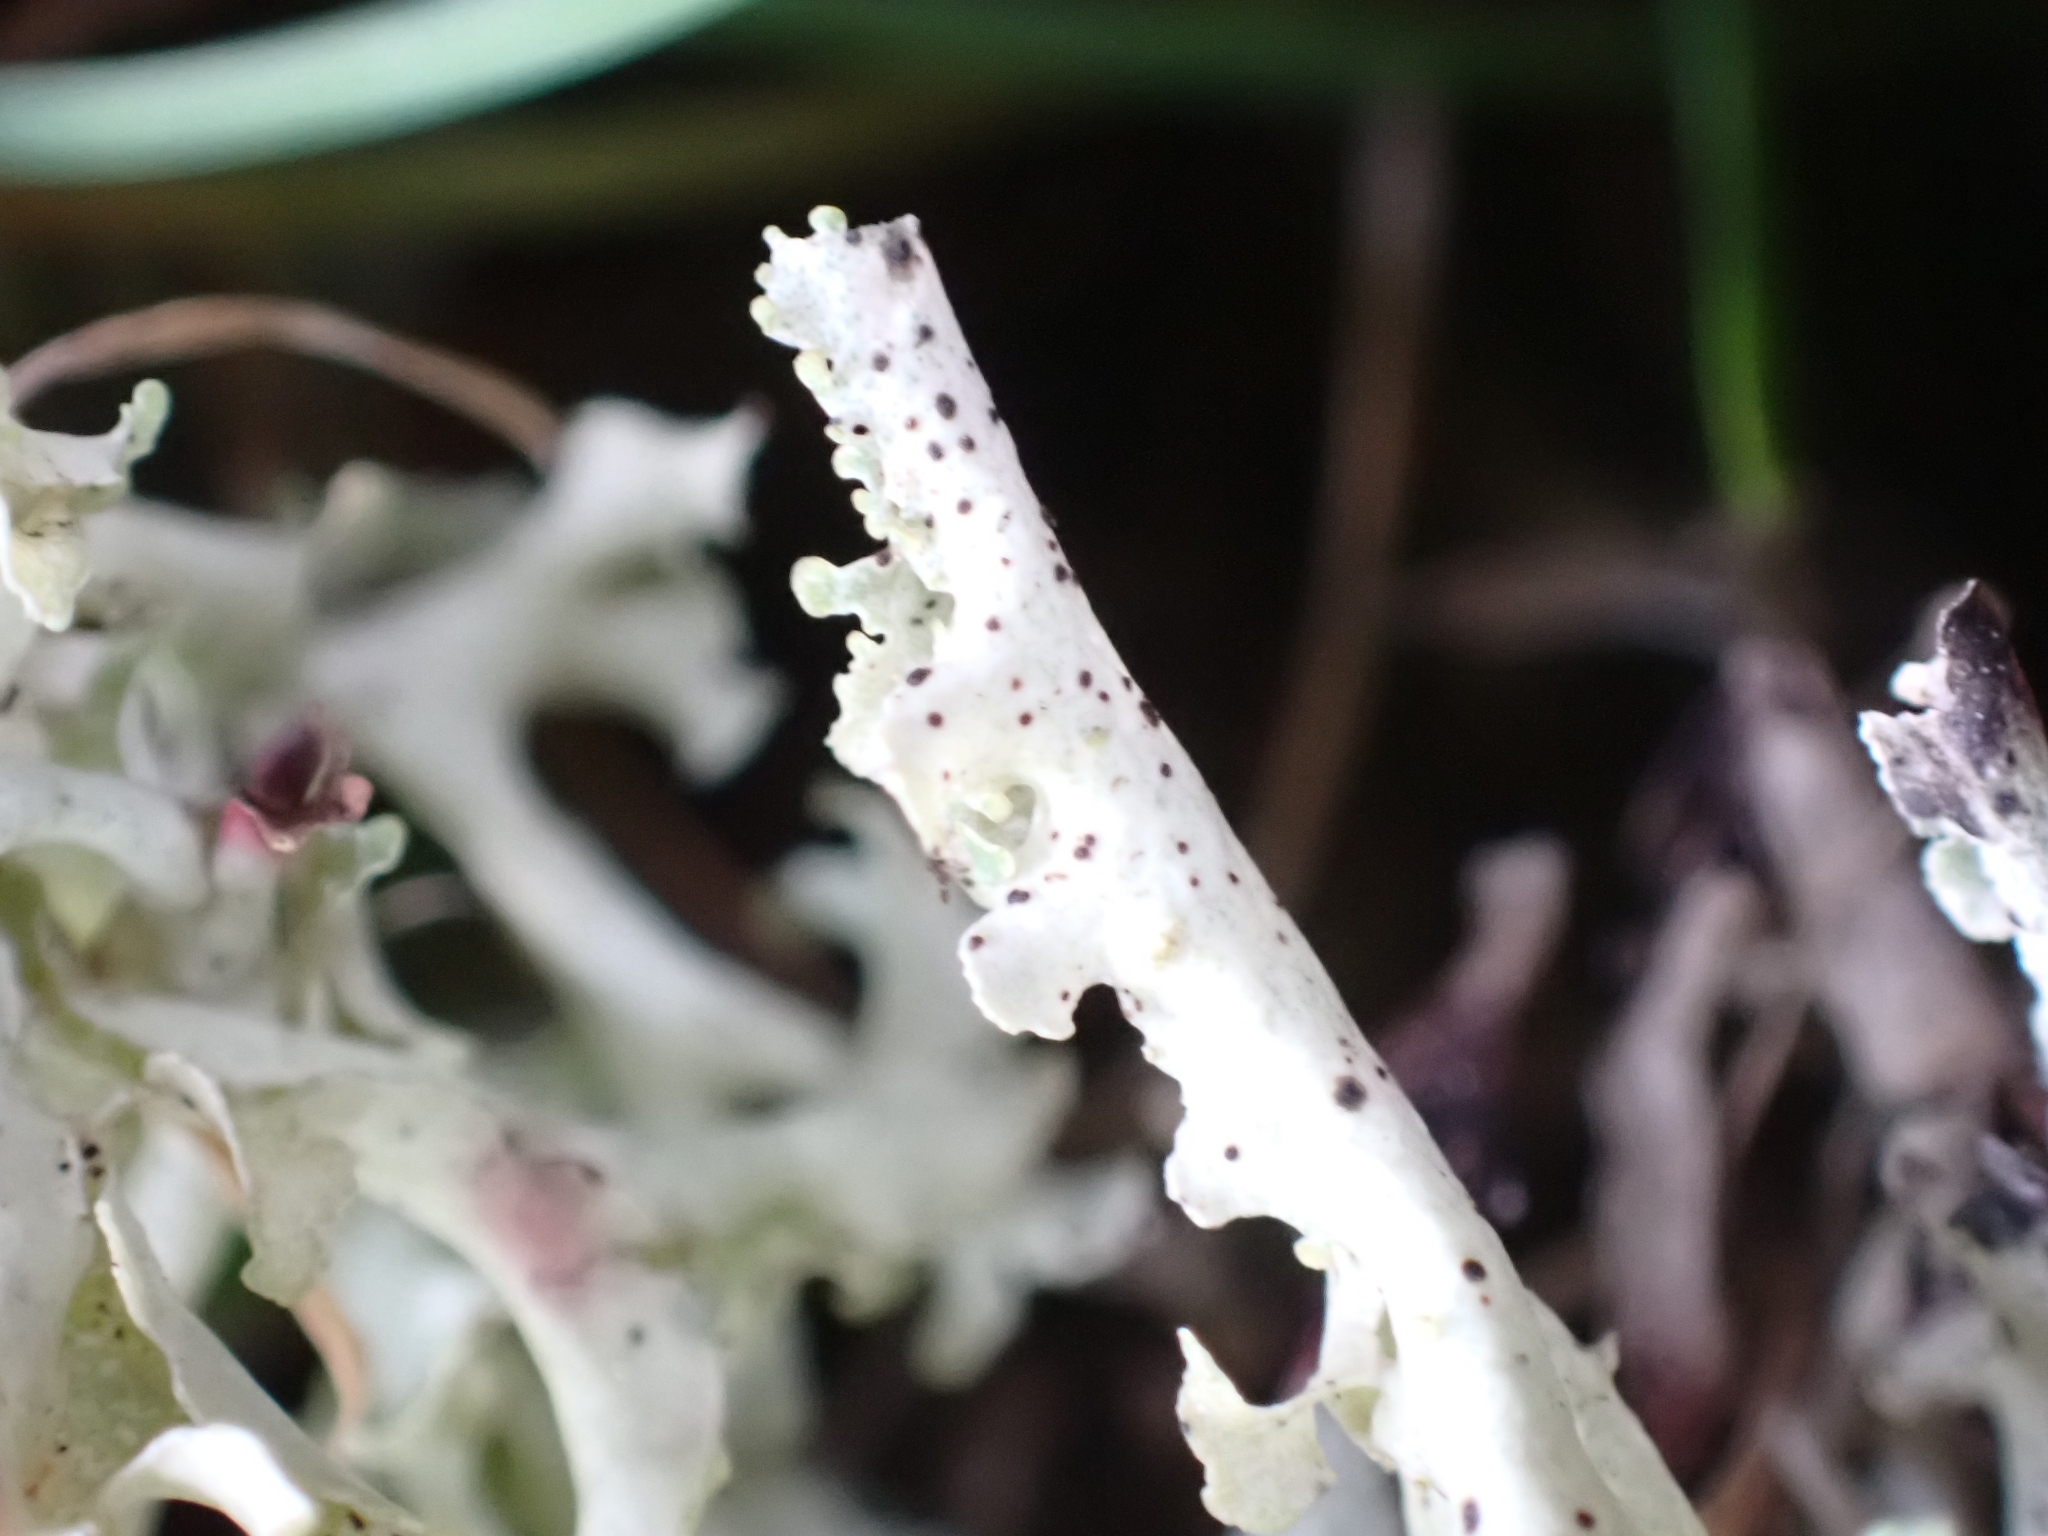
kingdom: Fungi
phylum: Ascomycota
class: Lecanoromycetes
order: Lecanorales
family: Parmeliaceae
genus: Nephromopsis
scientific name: Nephromopsis cucullata
